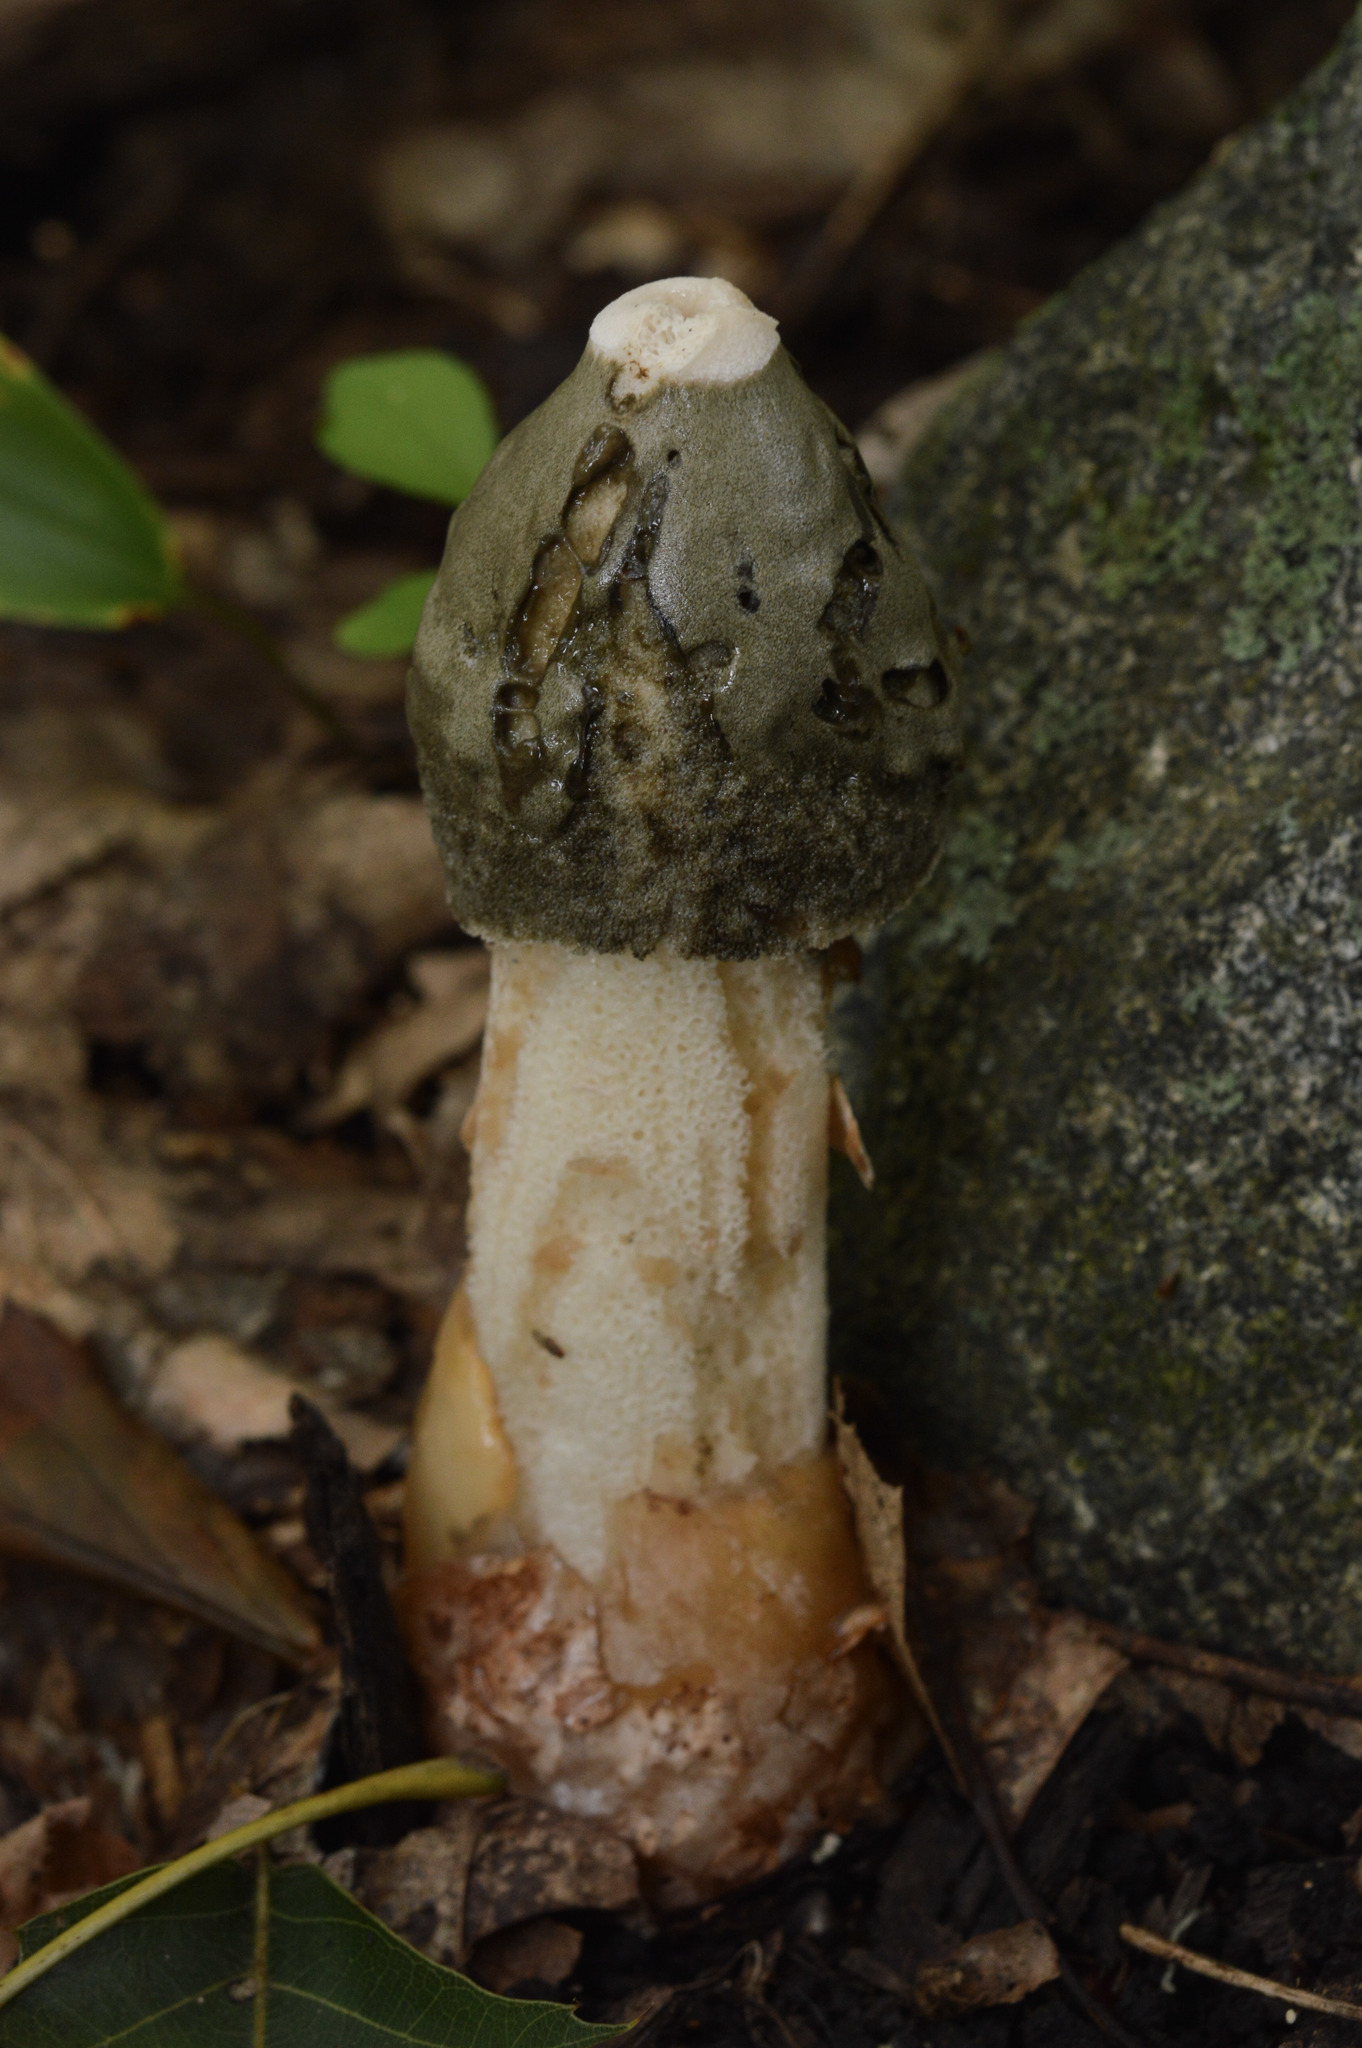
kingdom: Fungi
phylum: Basidiomycota
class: Agaricomycetes
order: Phallales
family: Phallaceae
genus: Phallus
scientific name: Phallus ravenelii
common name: Ravenel's stinkhorn
